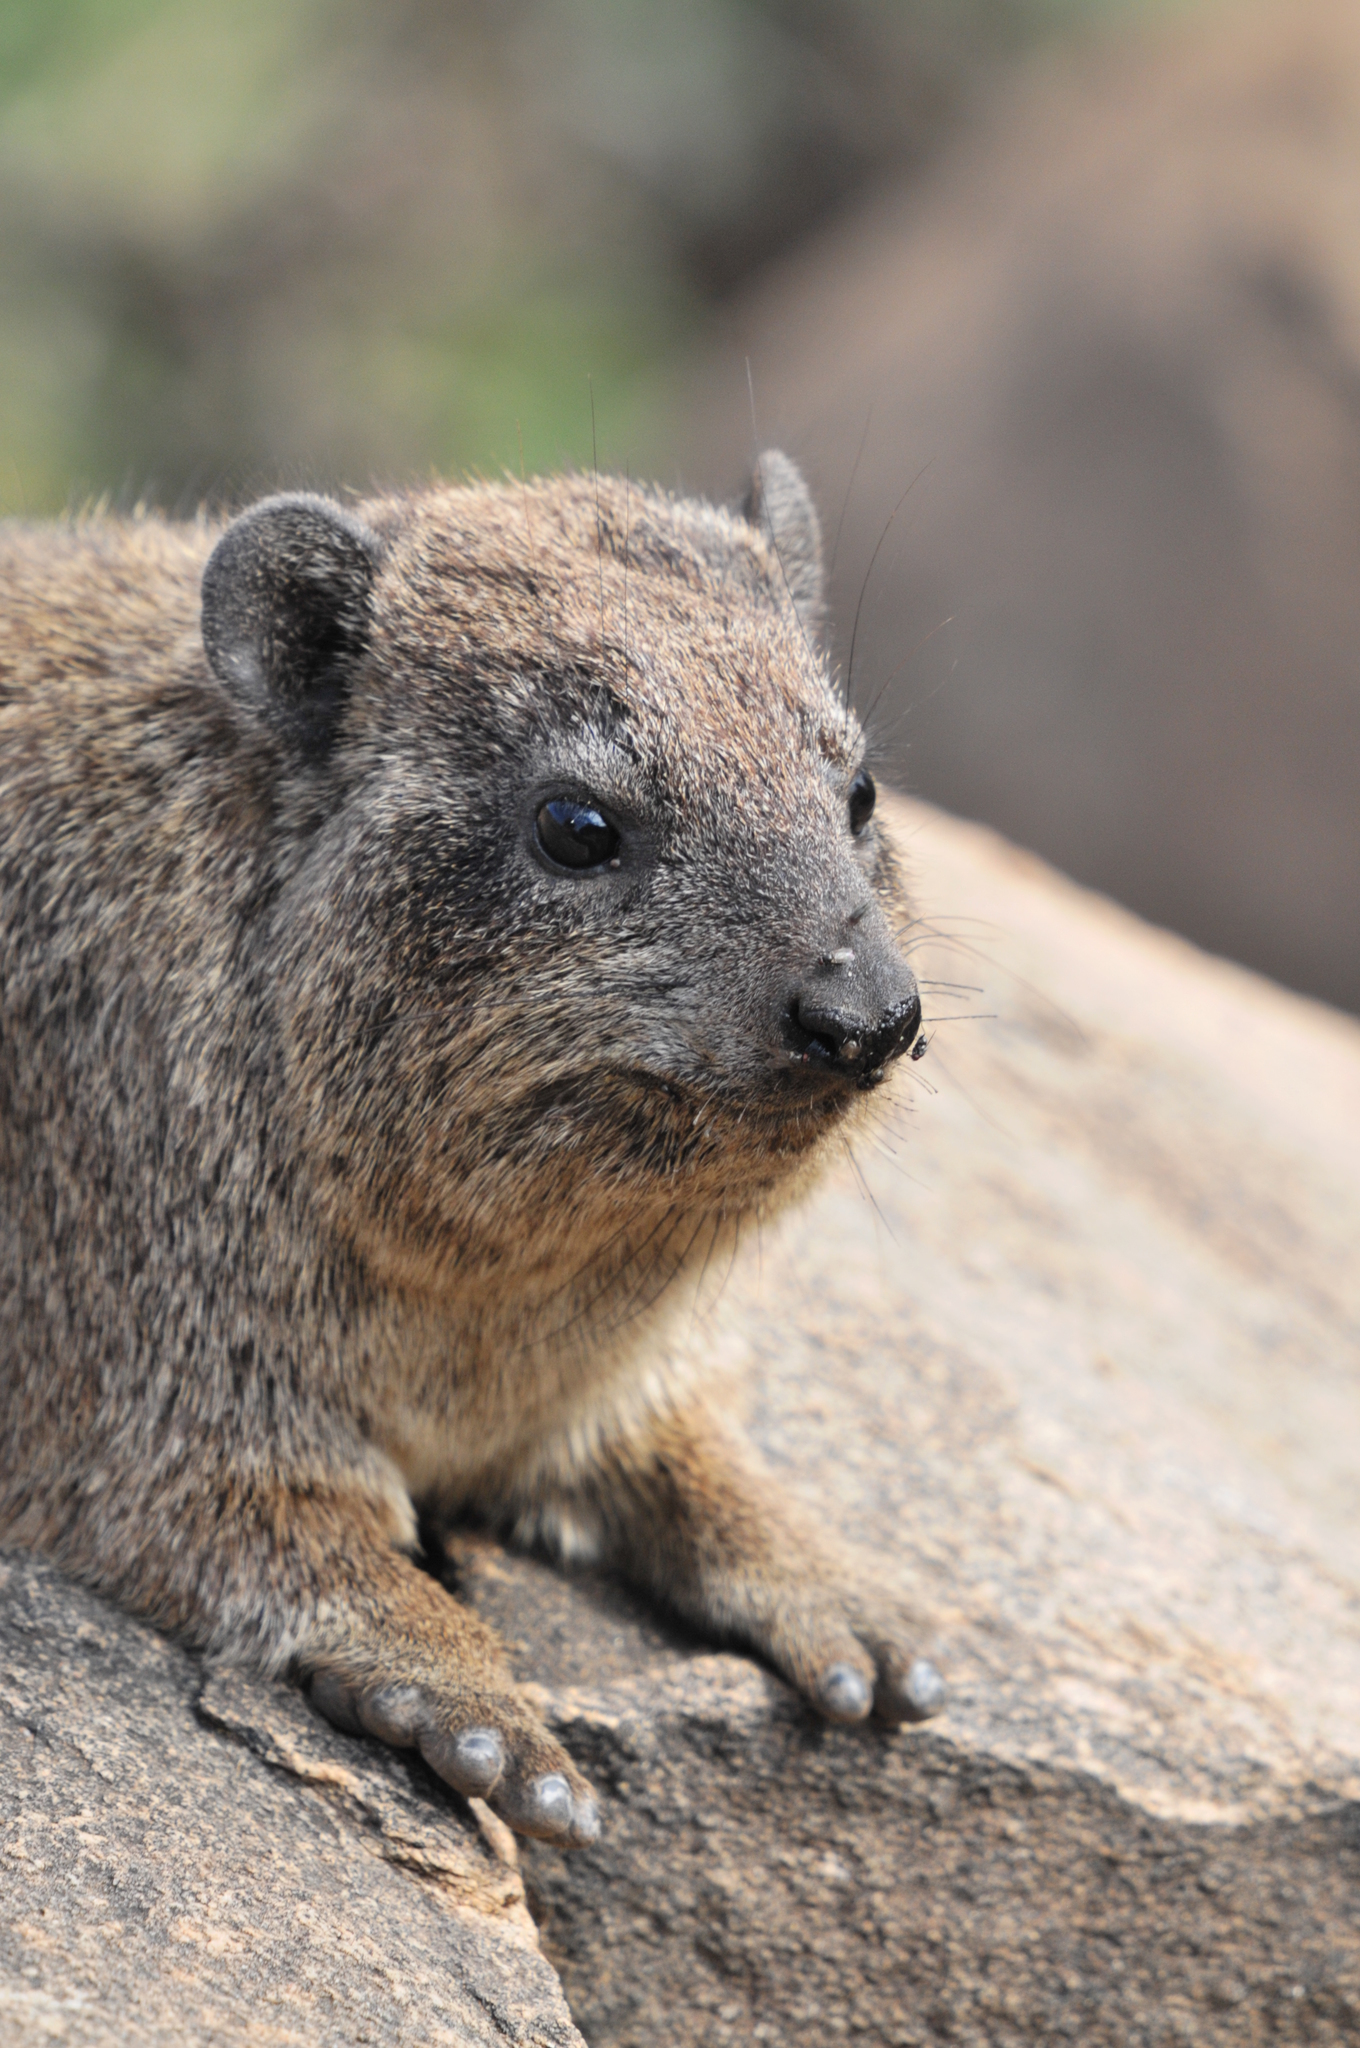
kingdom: Animalia
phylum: Chordata
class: Mammalia
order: Hyracoidea
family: Procaviidae
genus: Procavia
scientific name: Procavia capensis
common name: Rock hyrax
